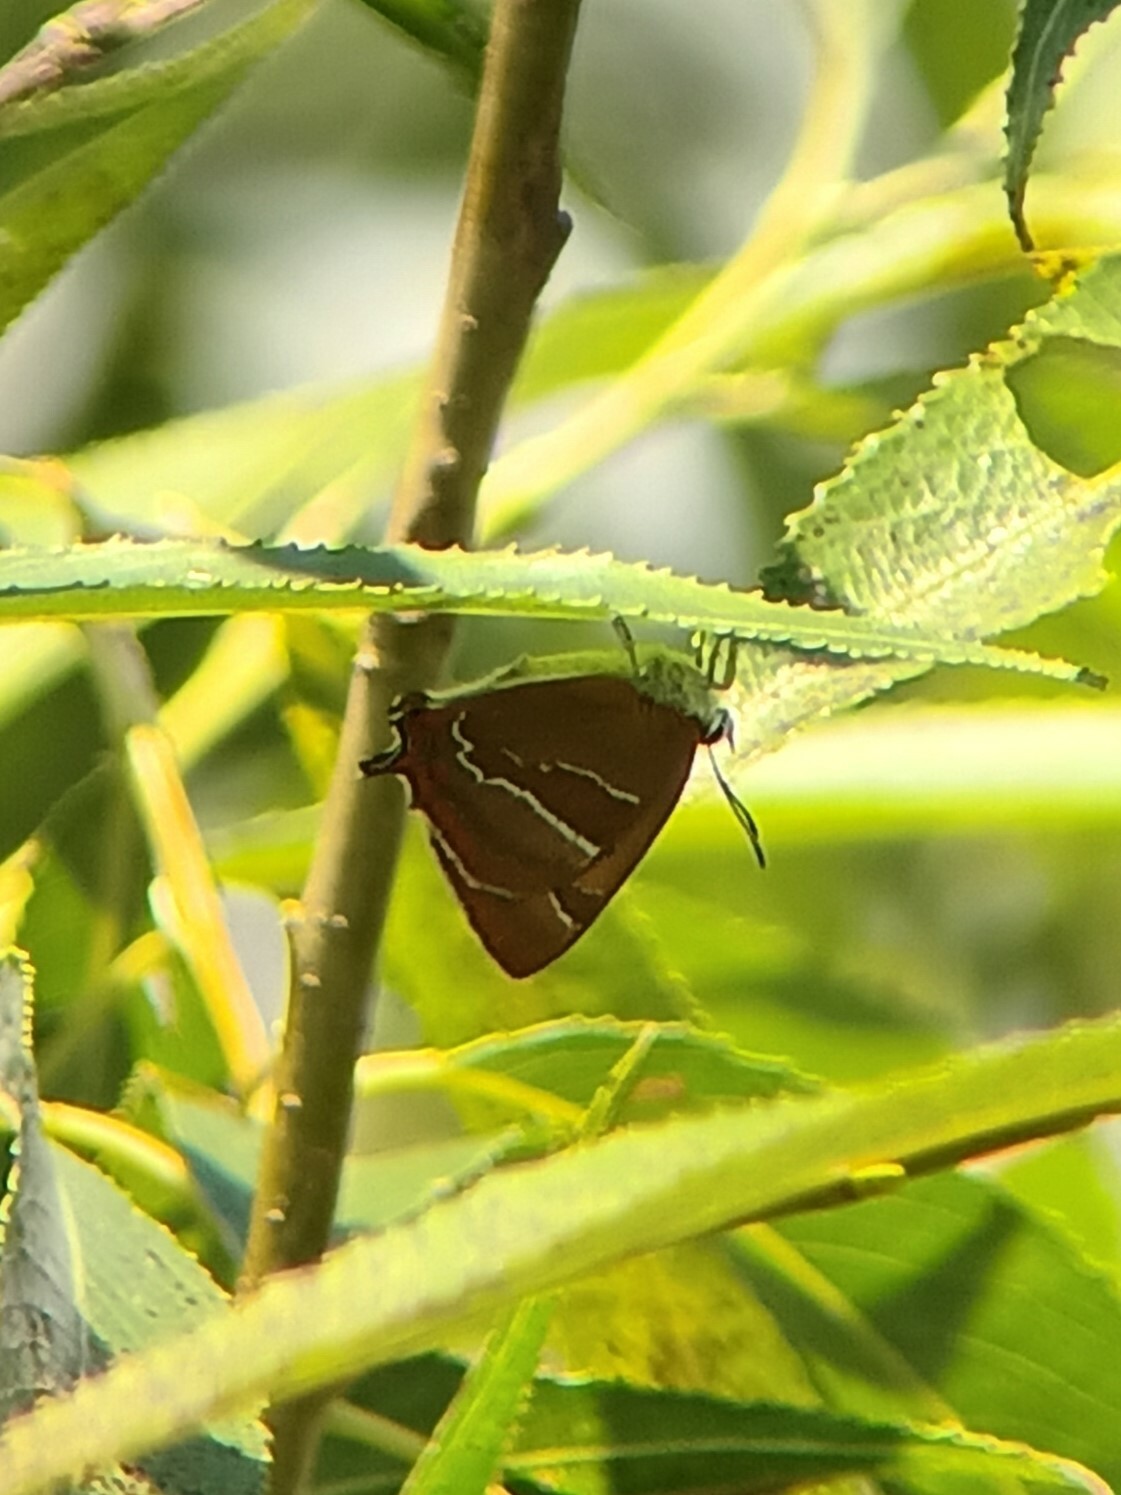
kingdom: Animalia
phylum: Arthropoda
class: Insecta
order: Lepidoptera
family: Lycaenidae
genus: Thecla
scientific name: Thecla betulae
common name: Brown hairstreak
